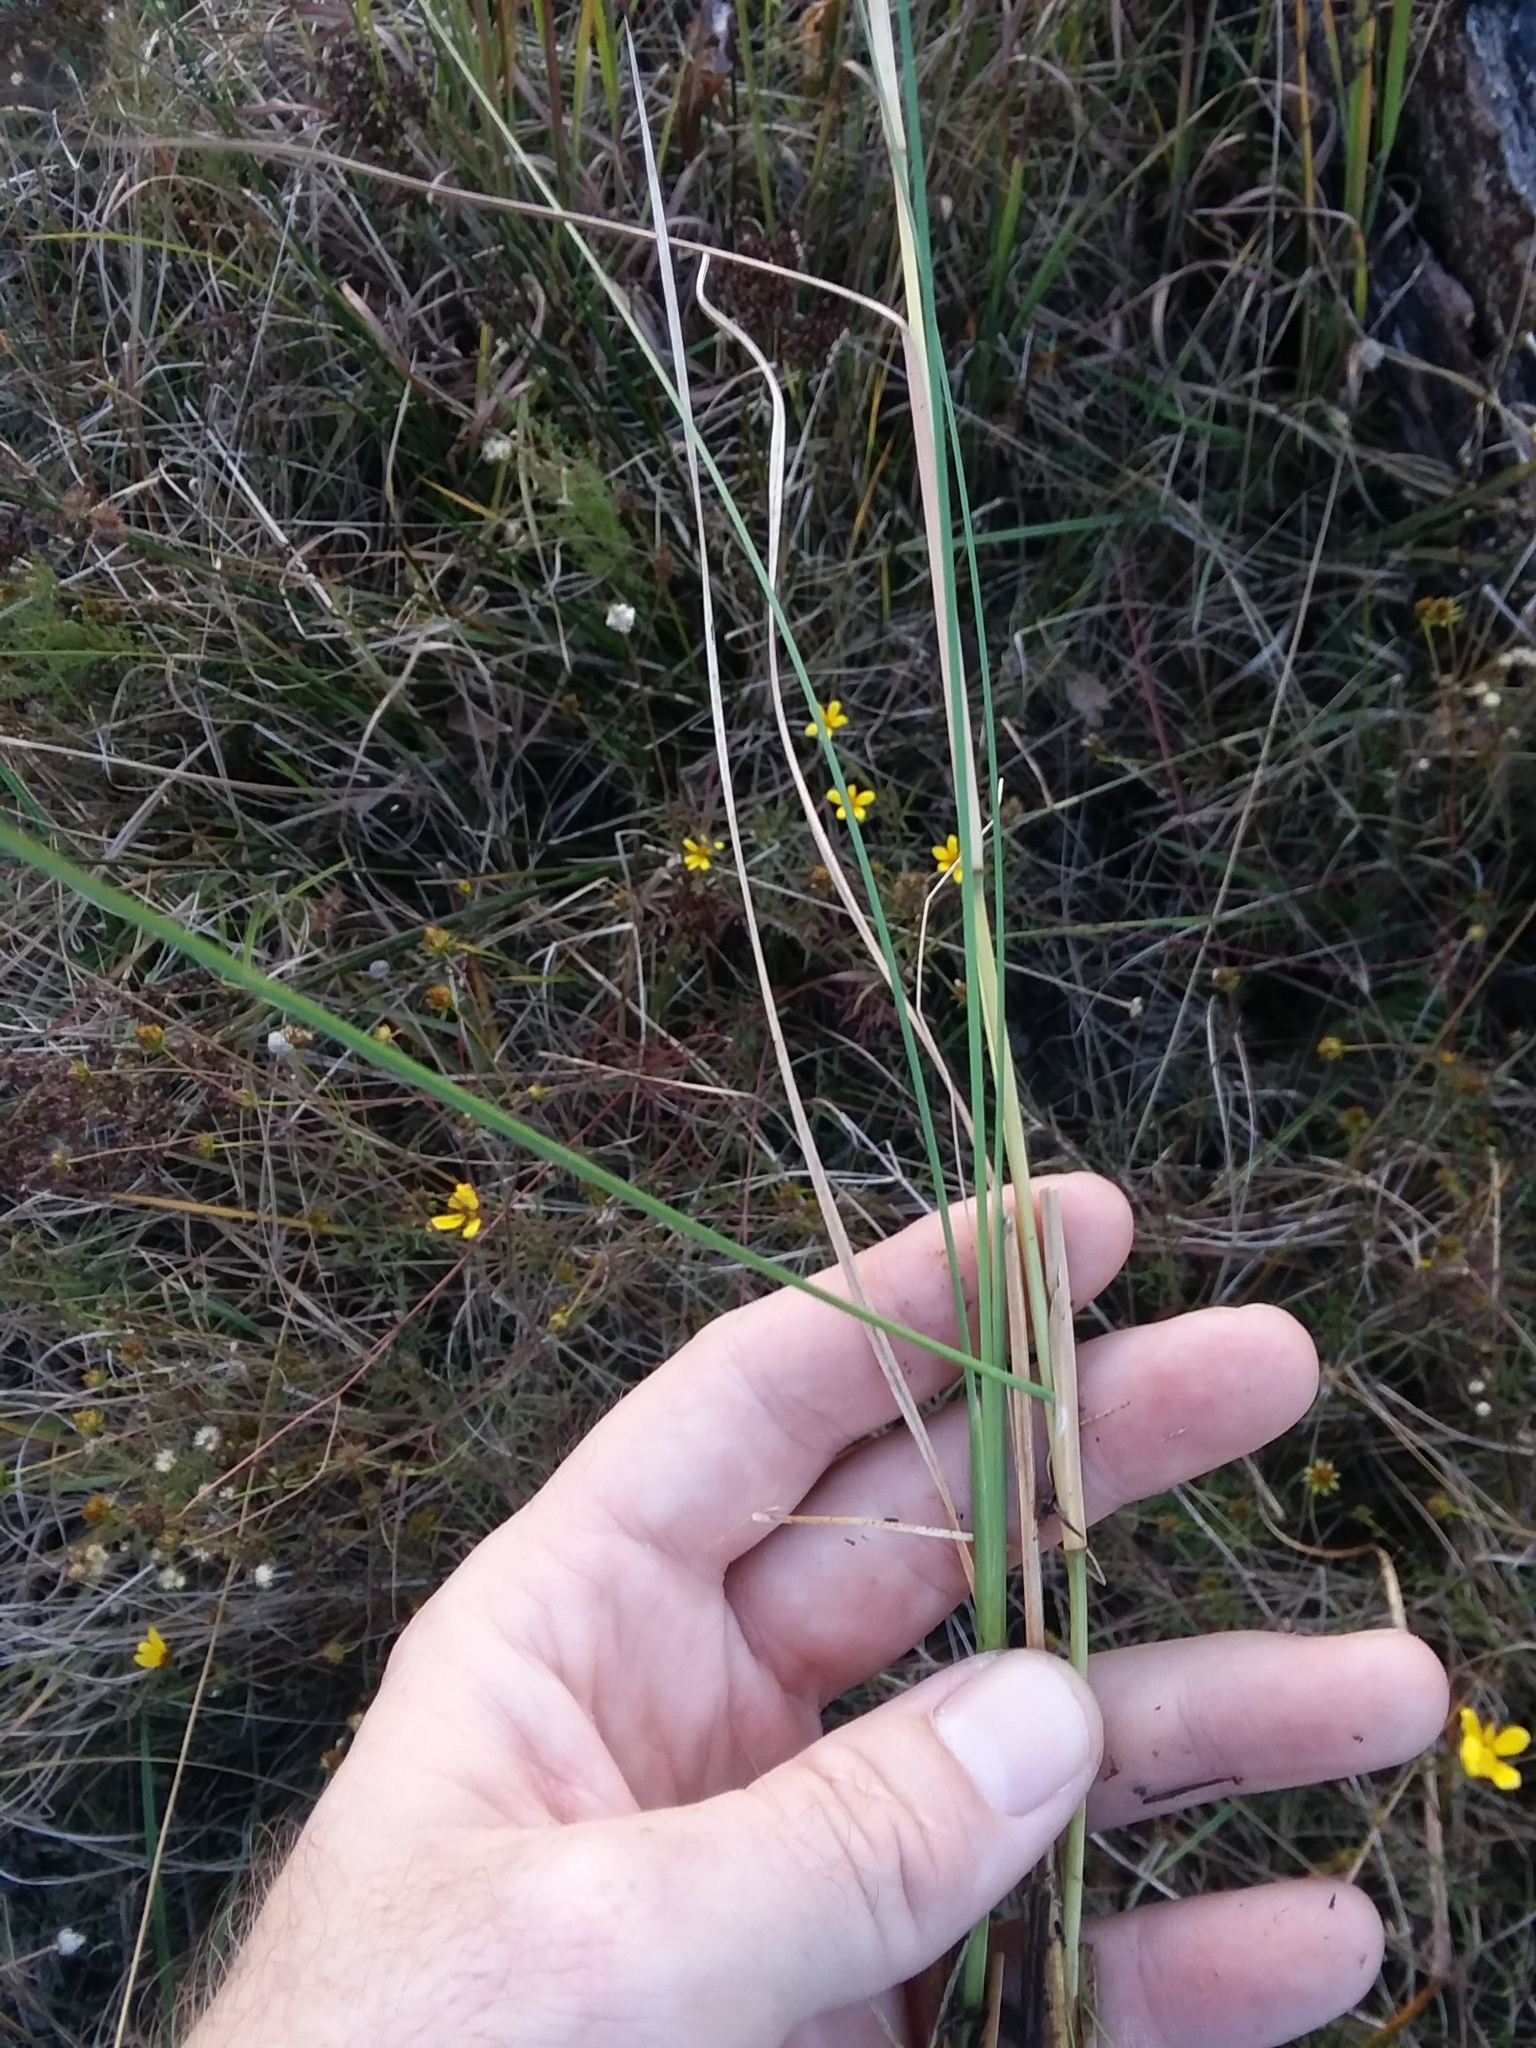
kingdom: Plantae
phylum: Tracheophyta
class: Liliopsida
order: Poales
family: Poaceae
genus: Andropogon
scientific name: Andropogon perangustatus
